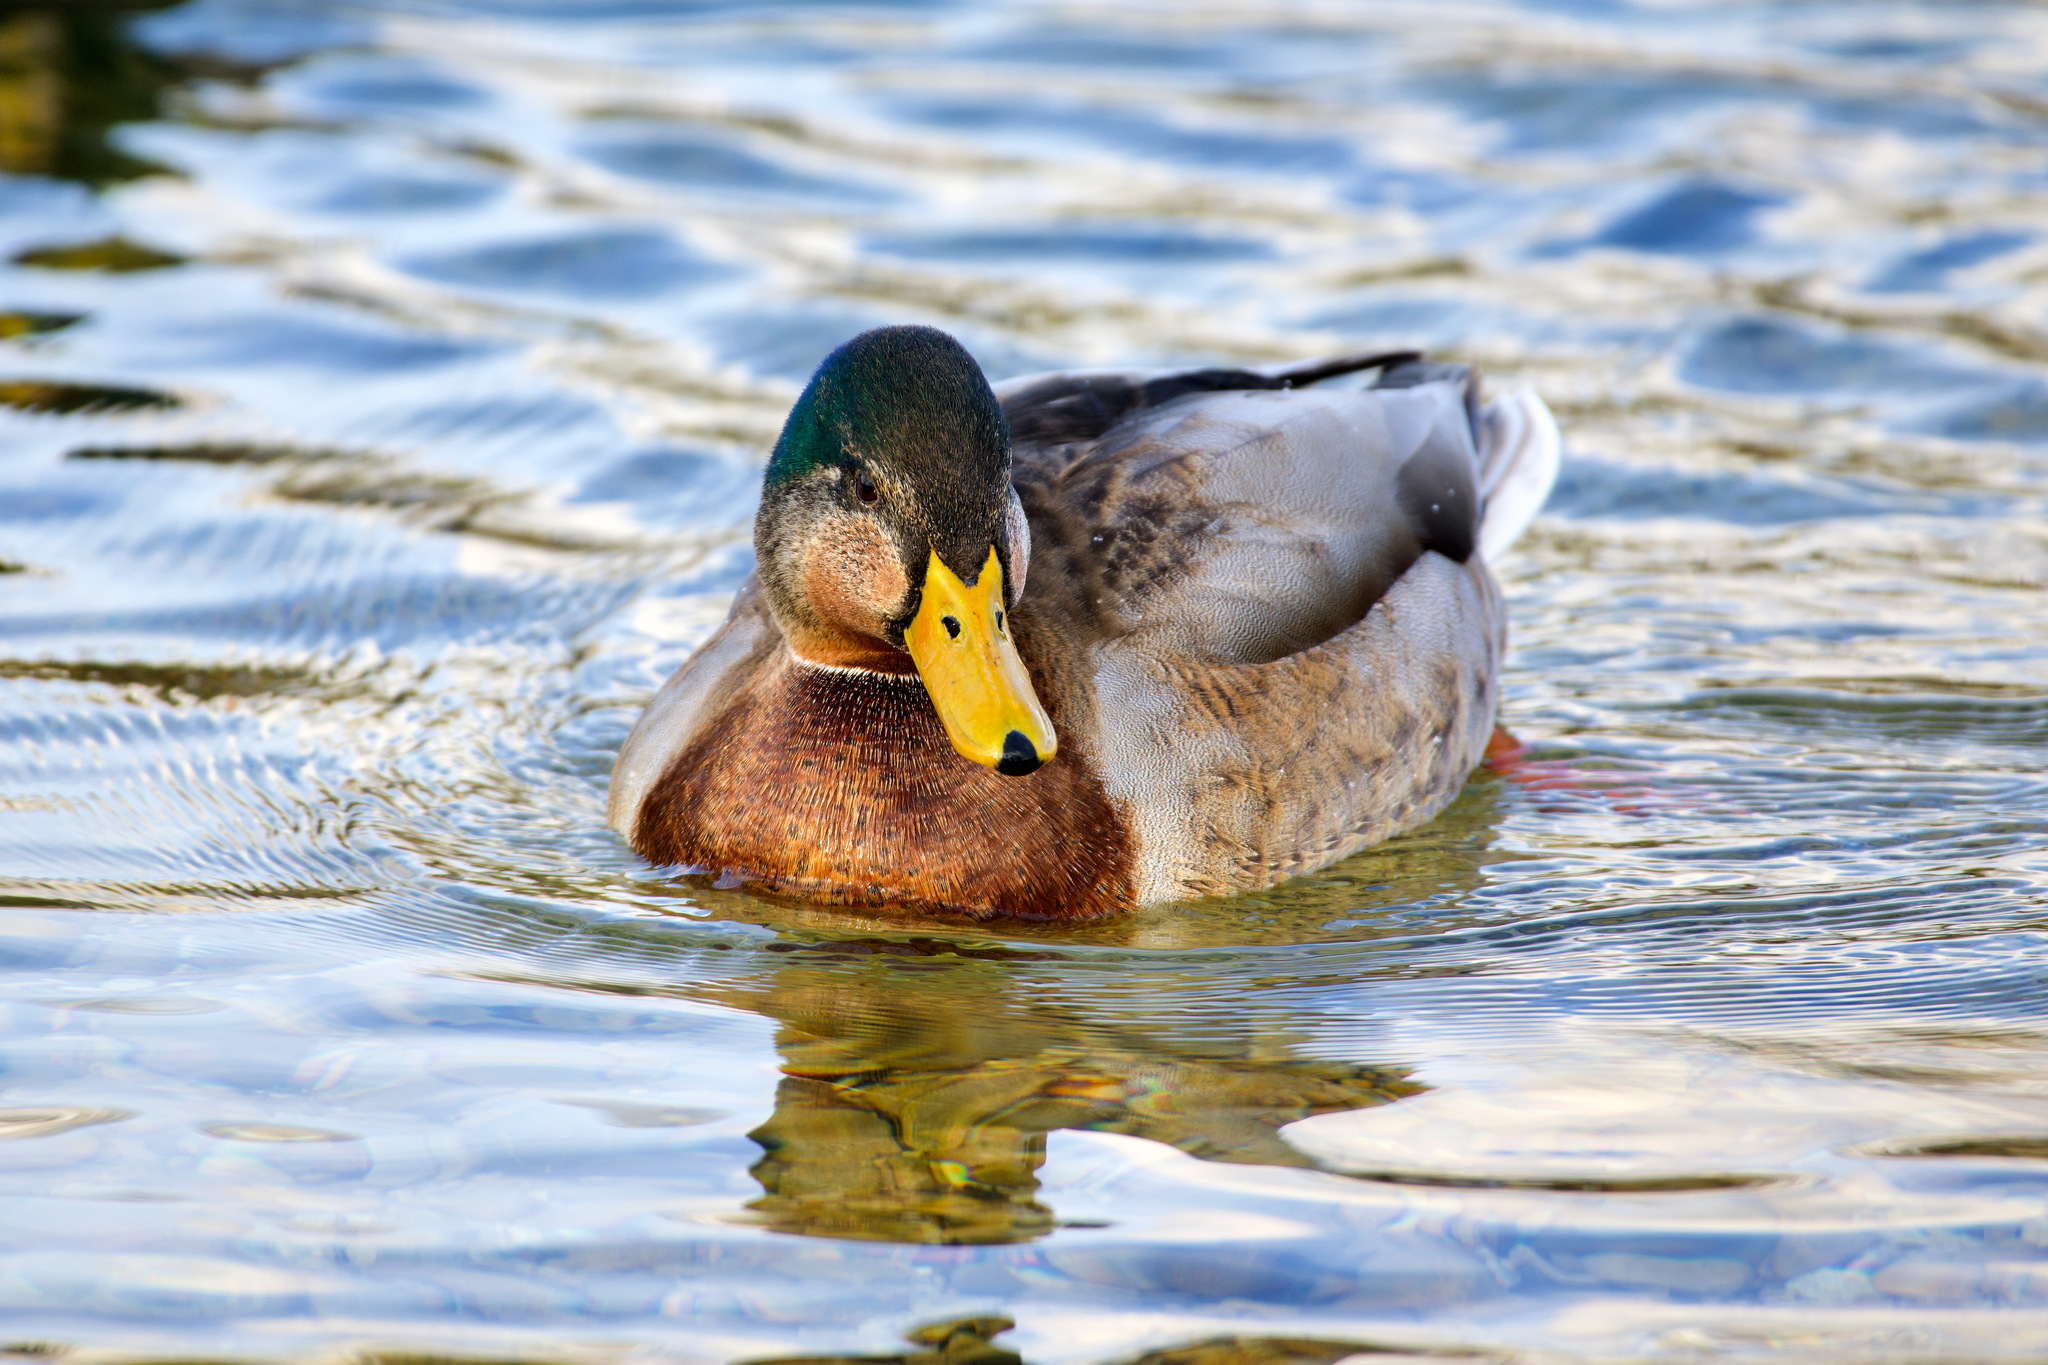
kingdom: Animalia
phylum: Chordata
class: Aves
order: Anseriformes
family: Anatidae
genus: Anas
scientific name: Anas platyrhynchos
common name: Mallard
